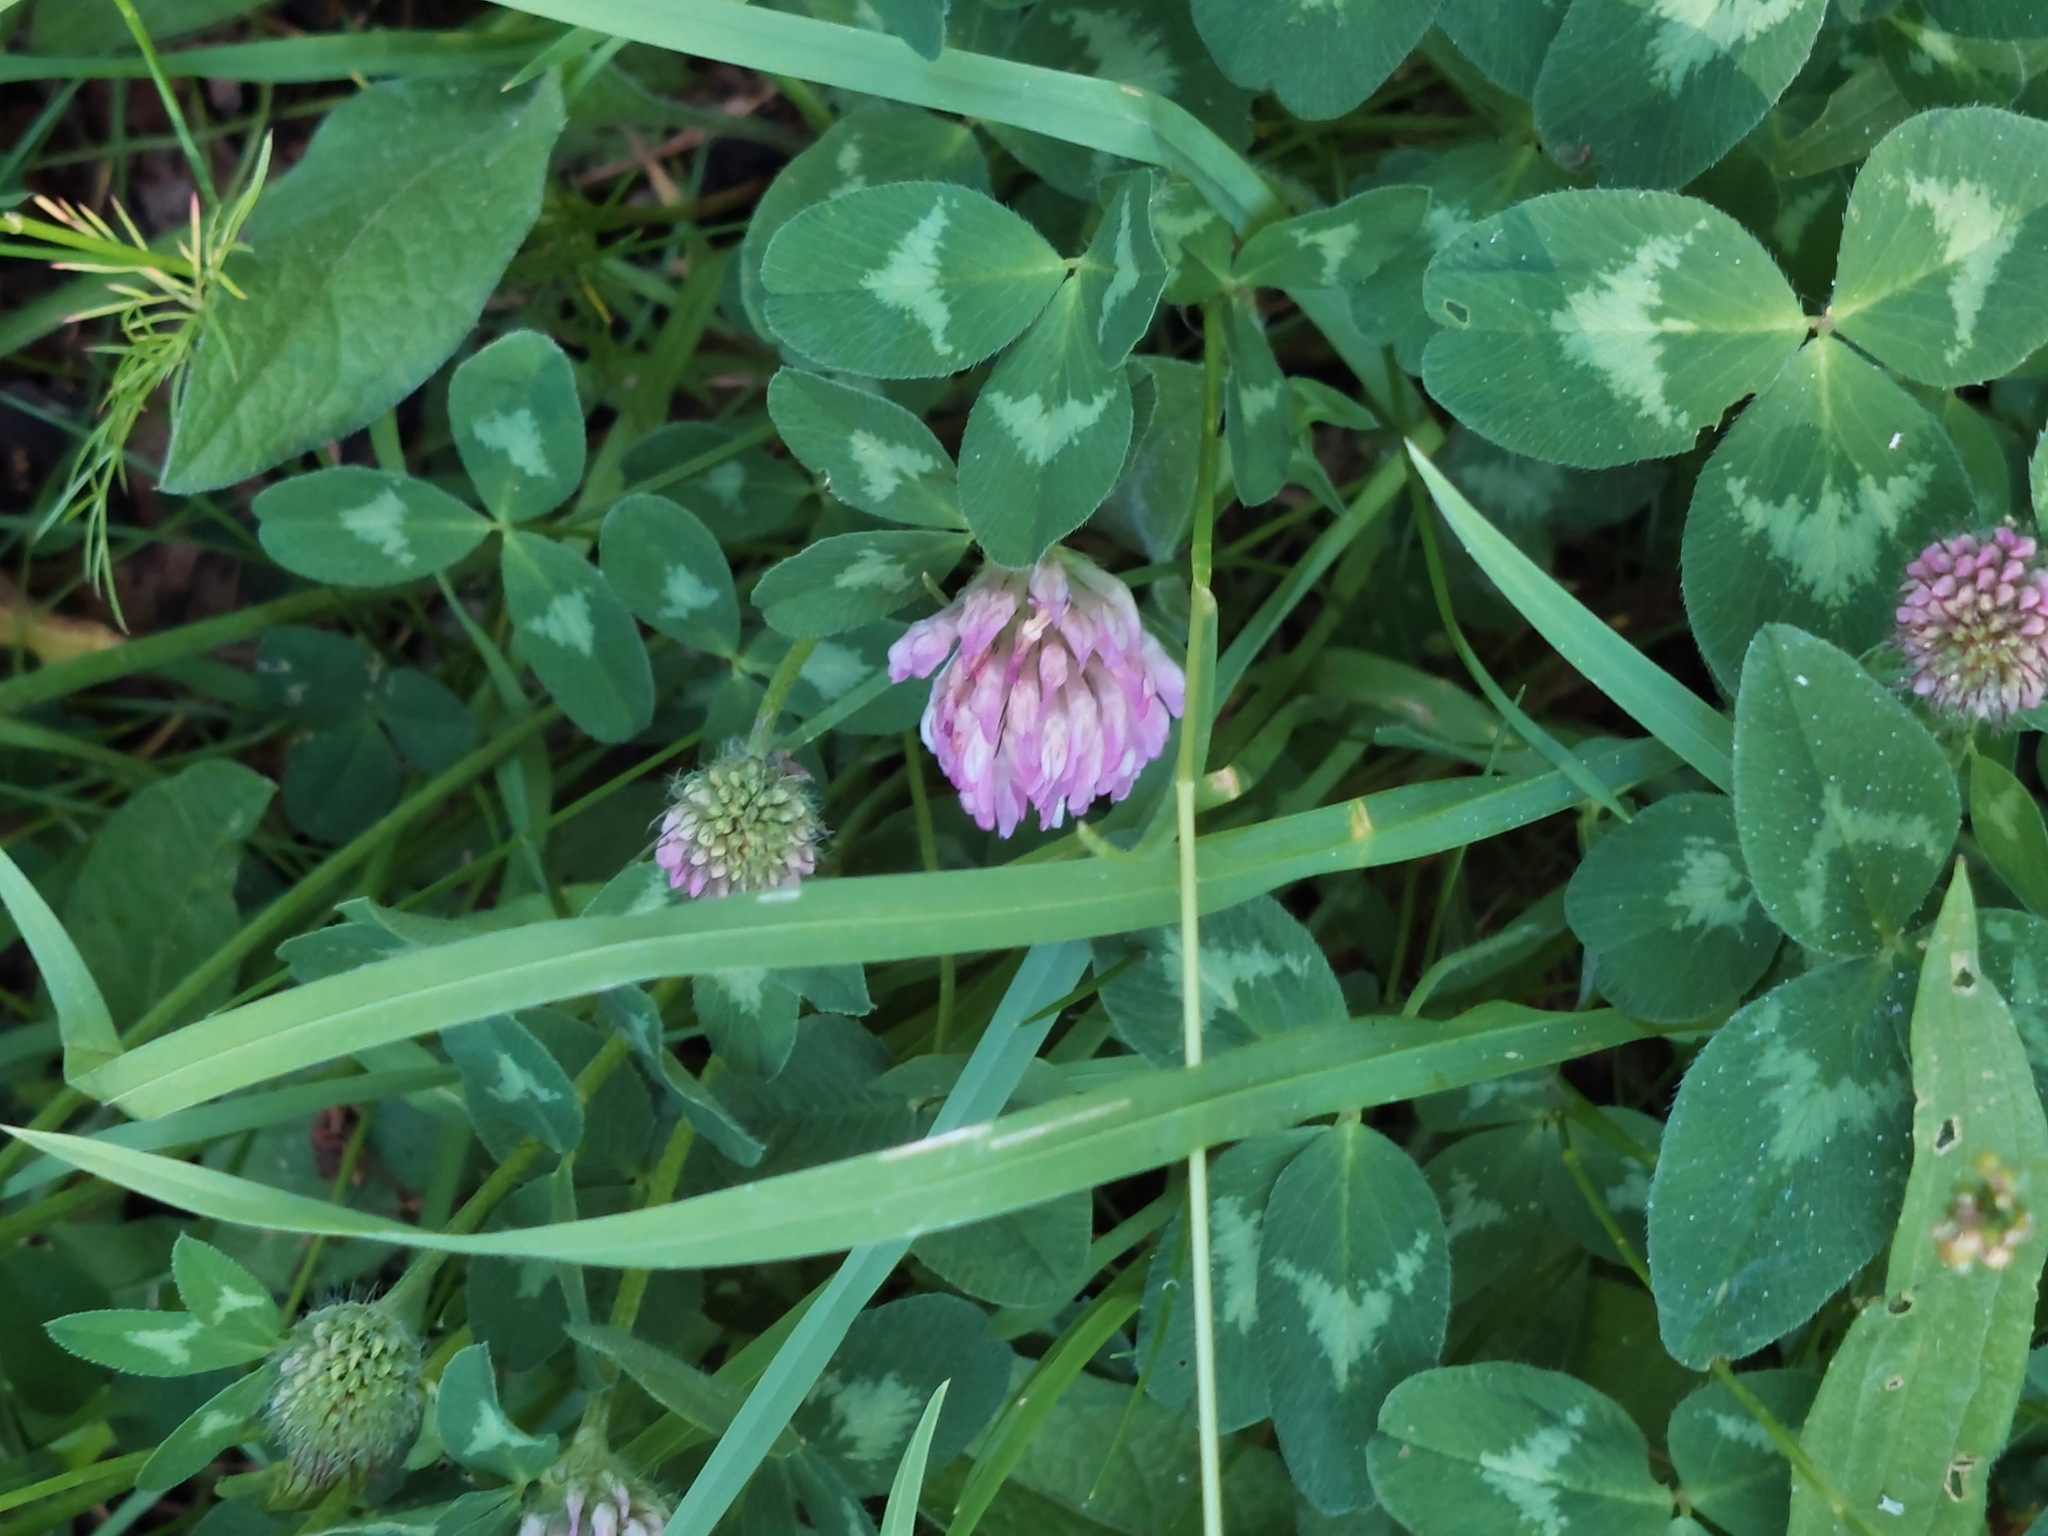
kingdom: Plantae
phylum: Tracheophyta
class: Magnoliopsida
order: Fabales
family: Fabaceae
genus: Trifolium
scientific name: Trifolium pratense
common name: Red clover
